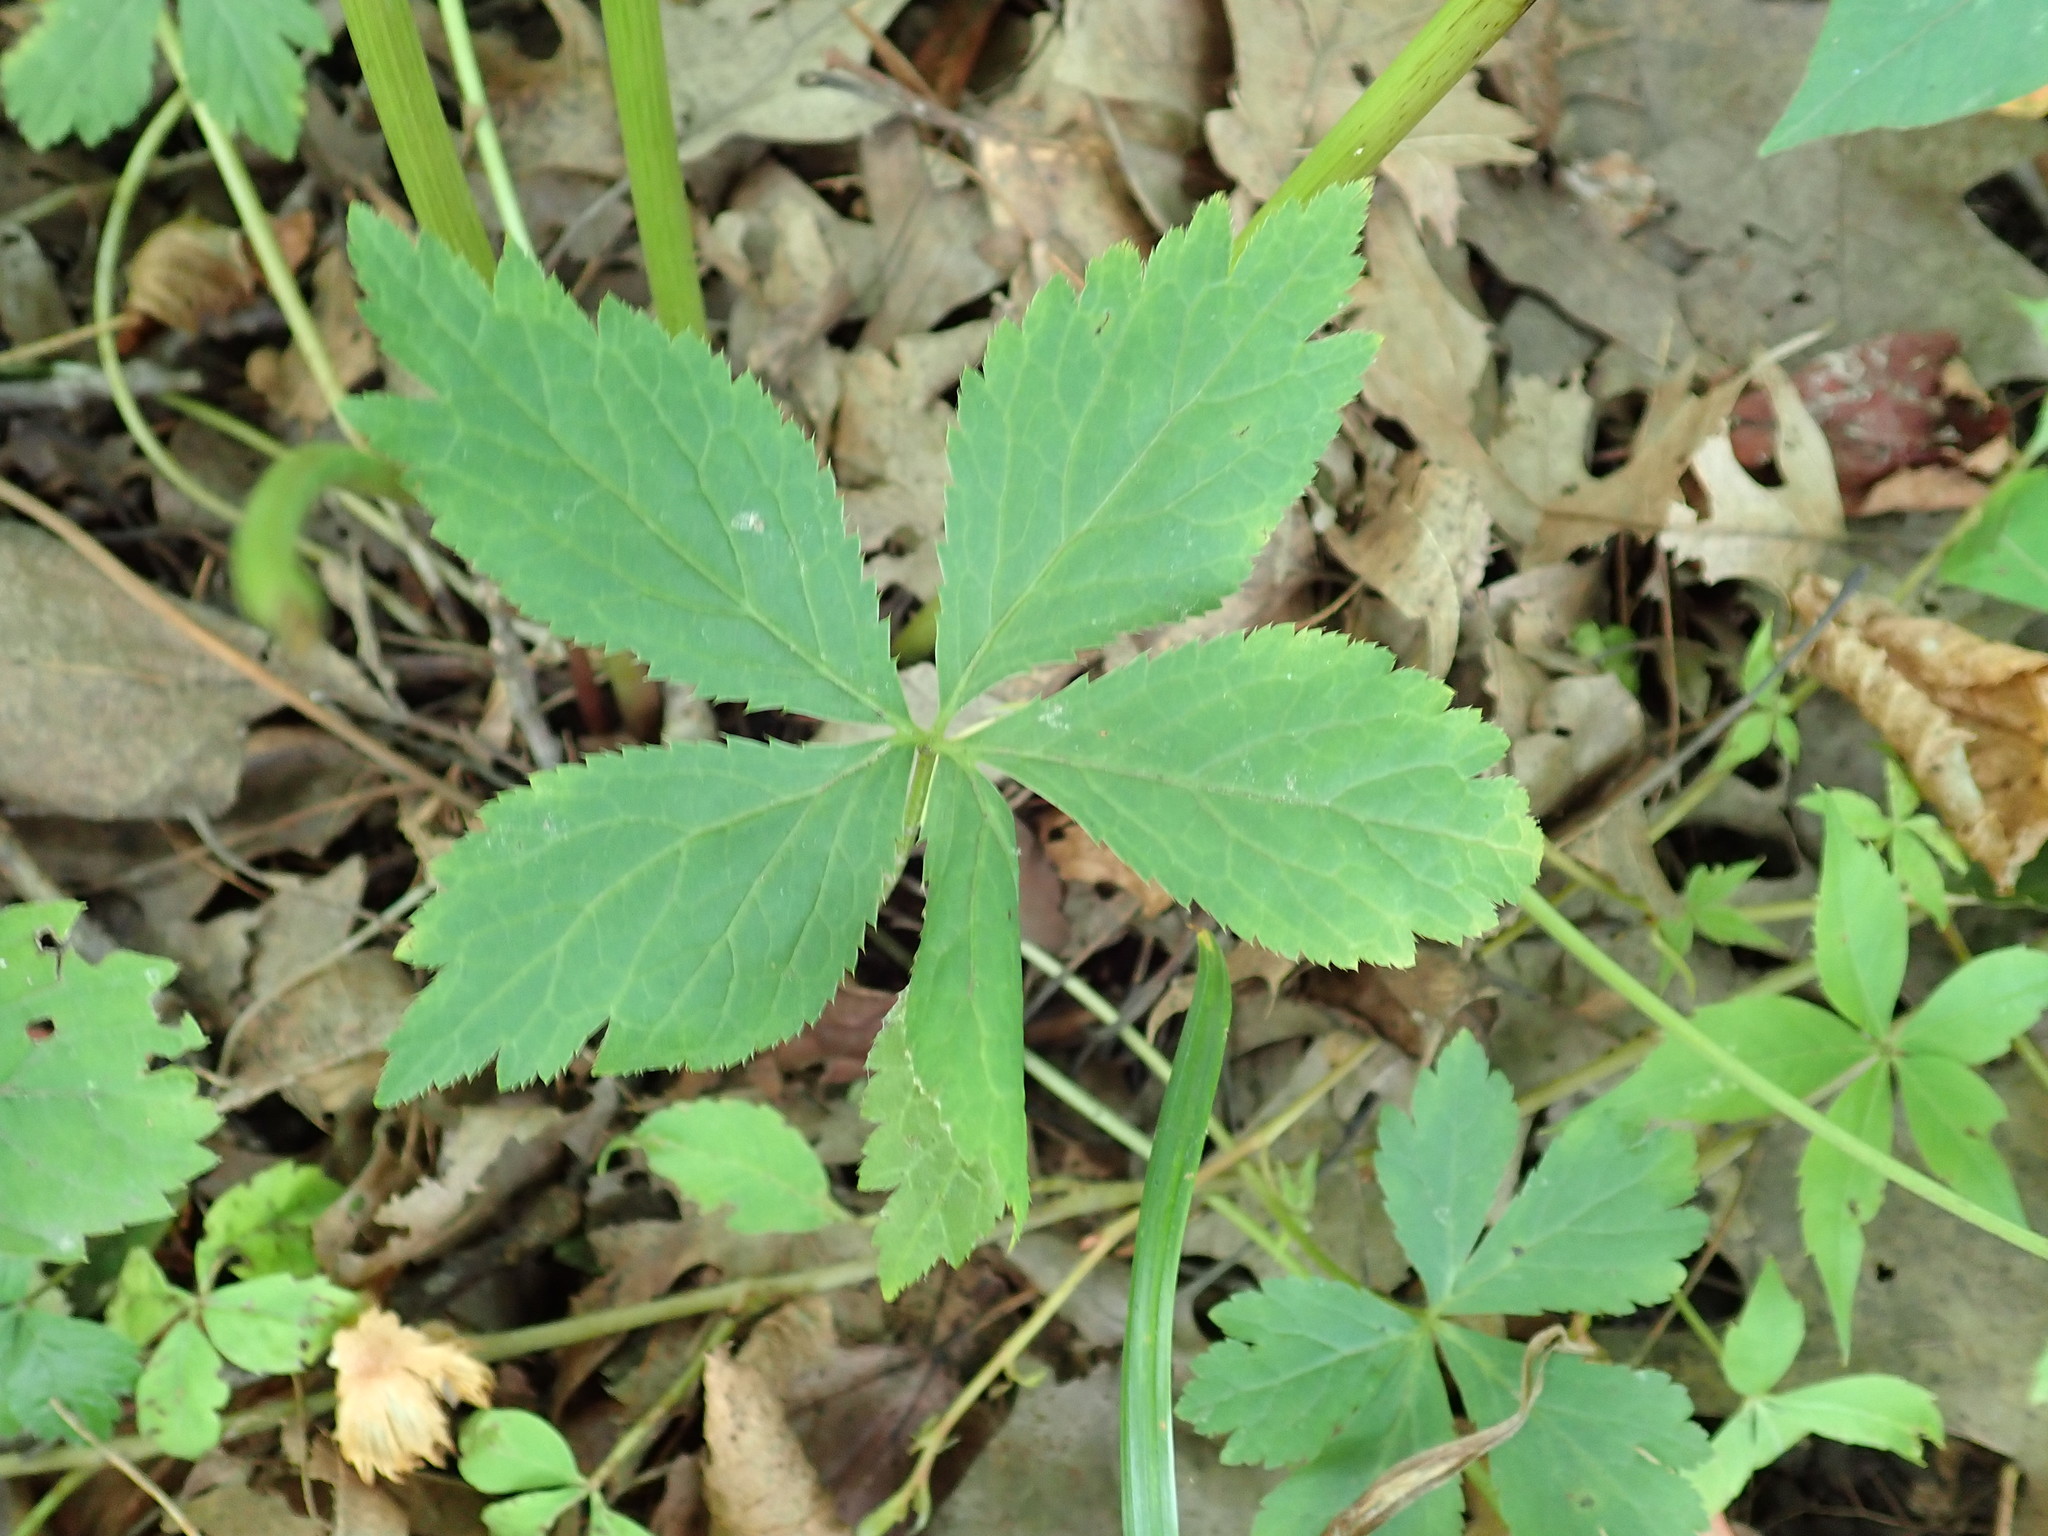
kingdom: Plantae
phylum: Tracheophyta
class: Magnoliopsida
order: Apiales
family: Apiaceae
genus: Sanicula
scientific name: Sanicula odorata
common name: Cluster sanicle
